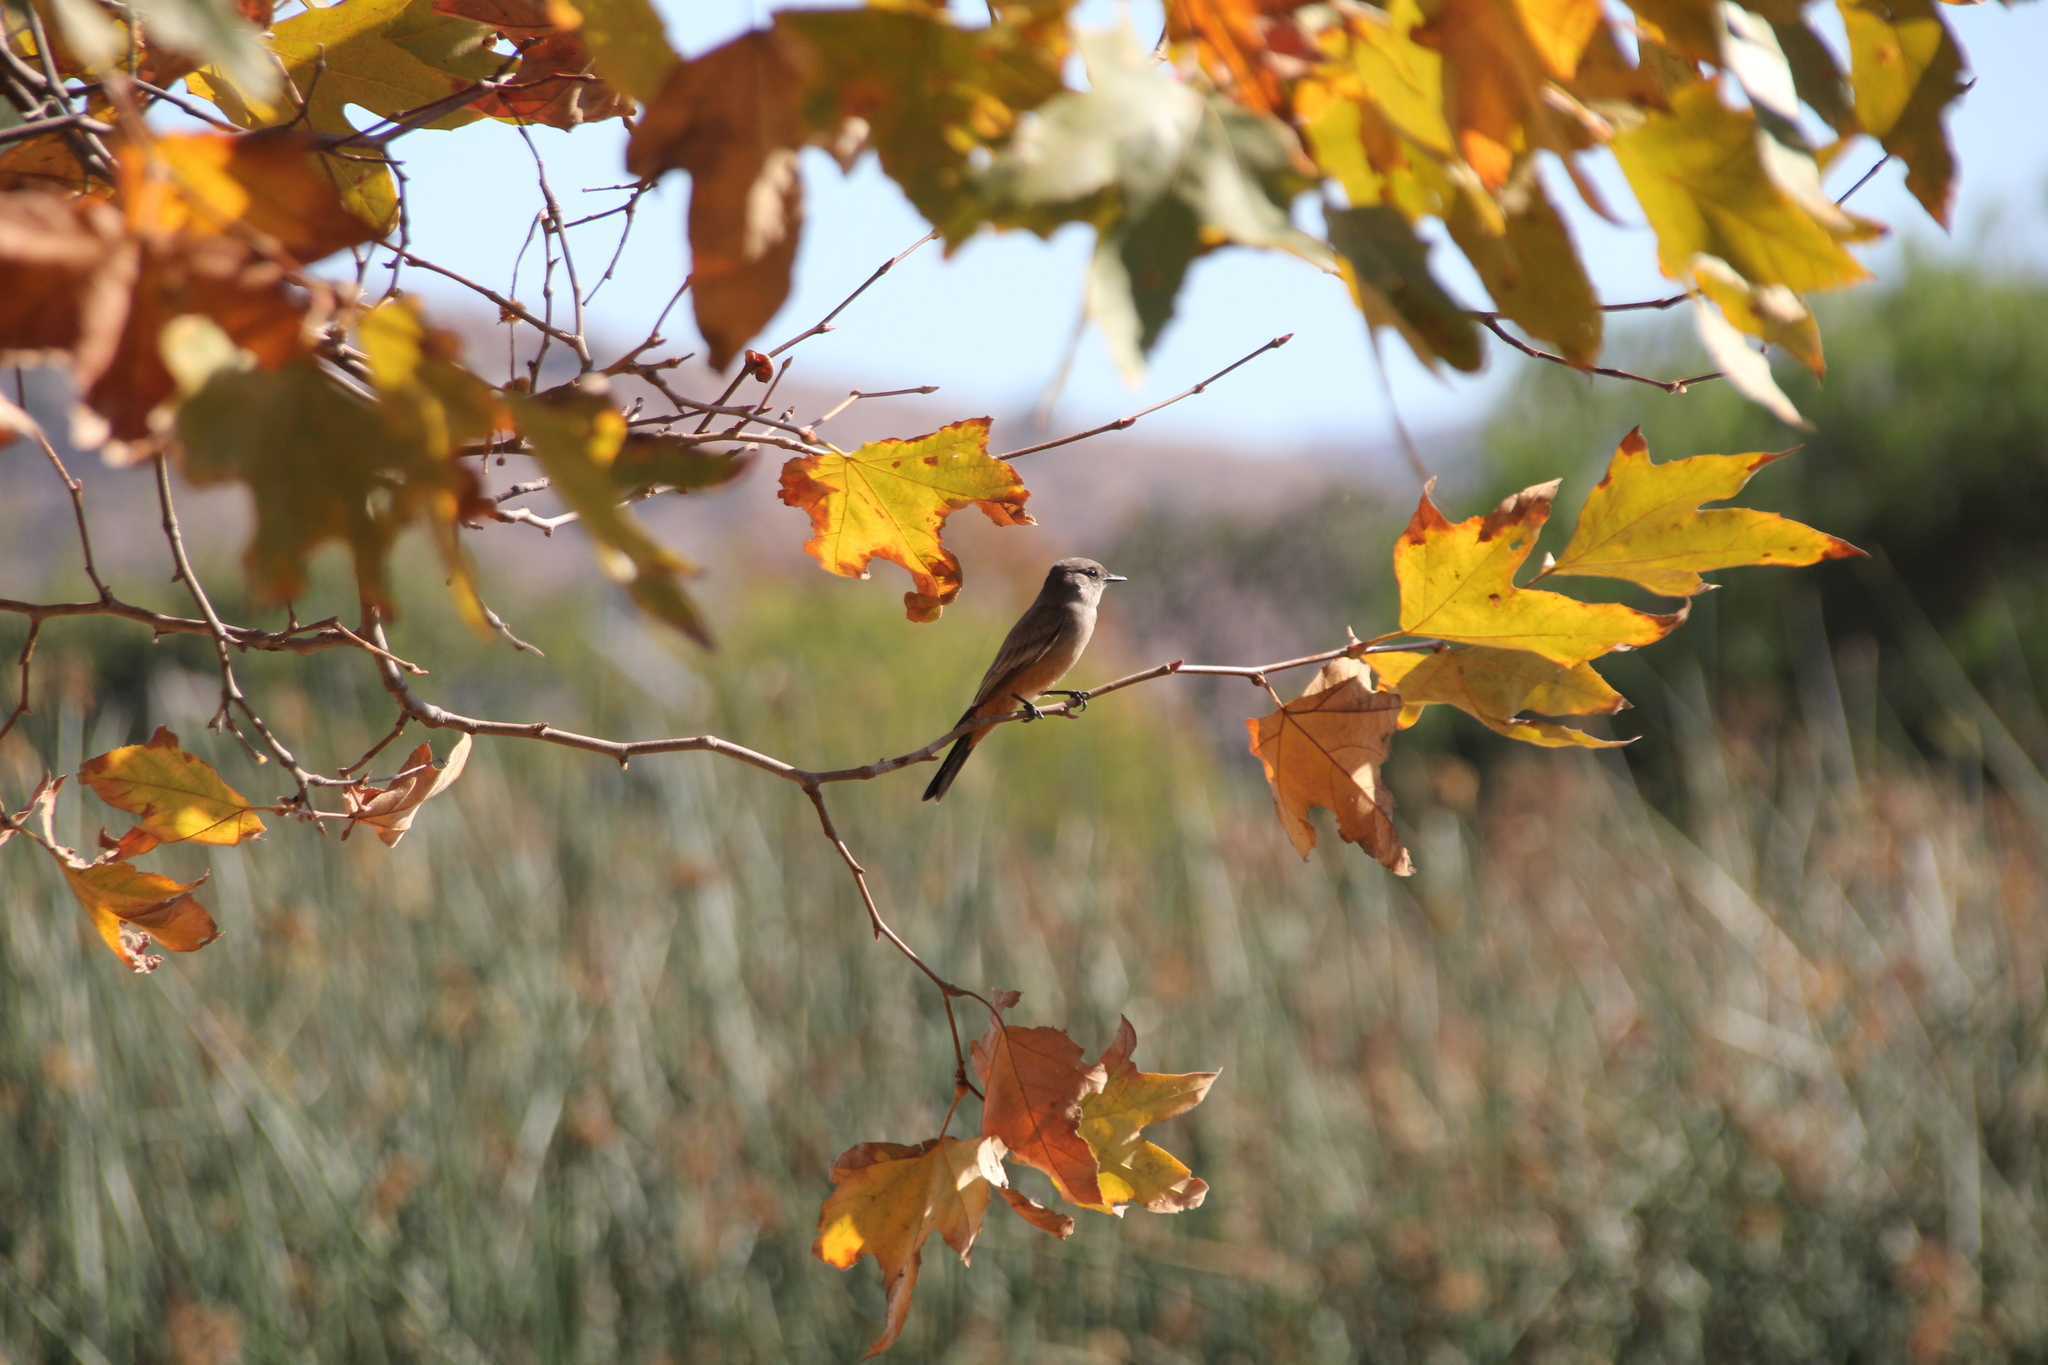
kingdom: Animalia
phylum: Chordata
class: Aves
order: Passeriformes
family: Tyrannidae
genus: Sayornis
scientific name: Sayornis saya
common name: Say's phoebe
